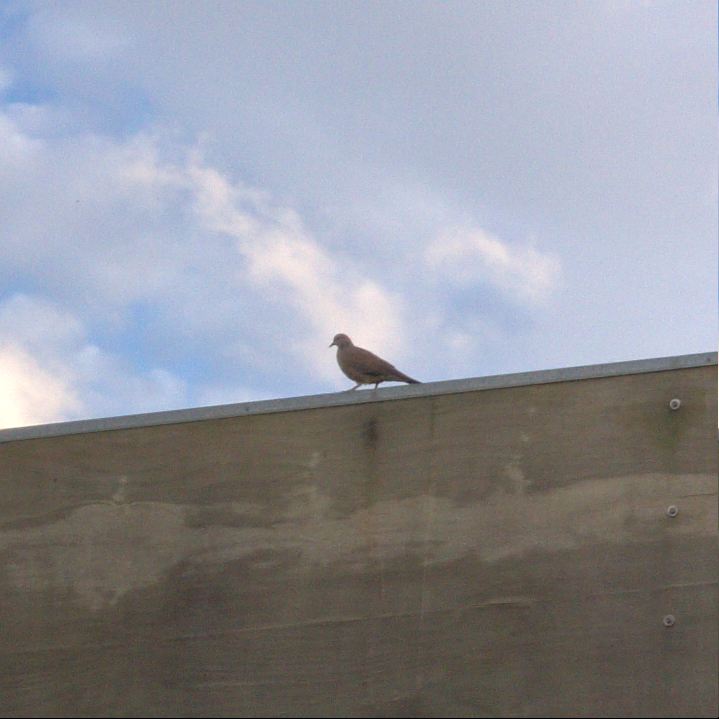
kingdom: Animalia
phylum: Chordata
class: Aves
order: Columbiformes
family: Columbidae
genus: Spilopelia
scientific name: Spilopelia chinensis
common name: Spotted dove
